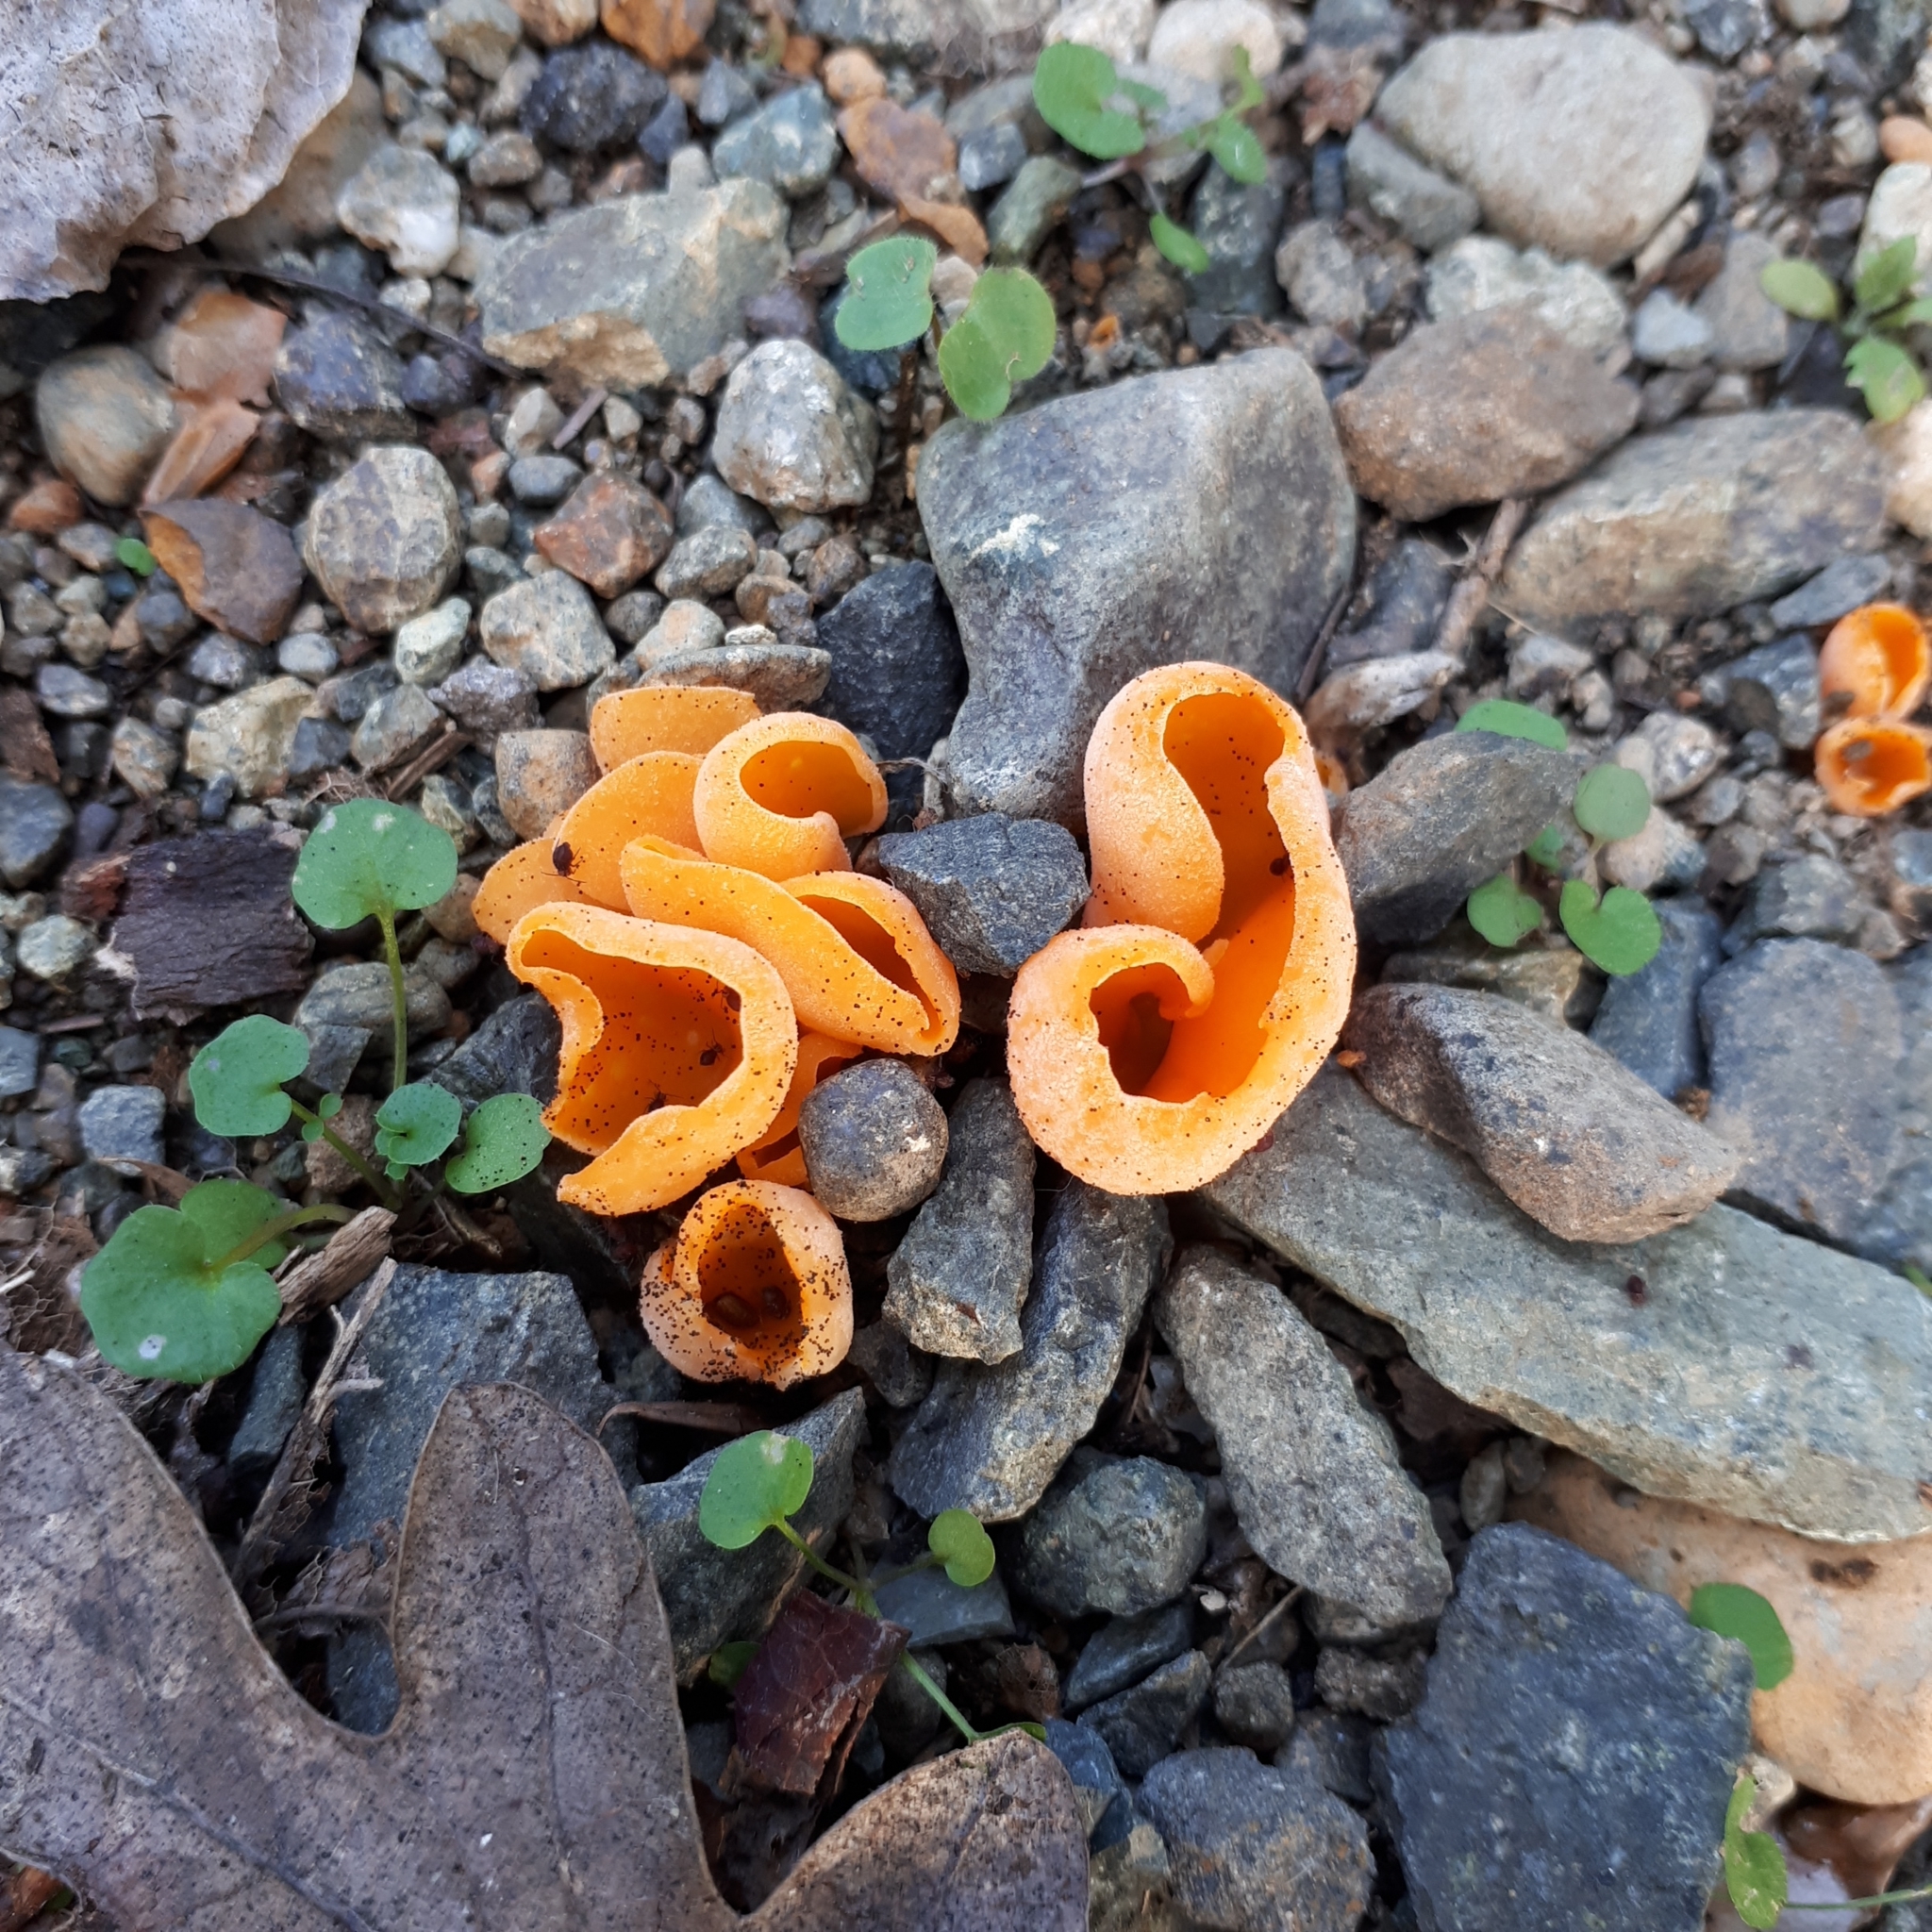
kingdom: Fungi
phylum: Ascomycota
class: Pezizomycetes
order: Pezizales
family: Pyronemataceae
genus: Aleuria
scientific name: Aleuria aurantia
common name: Orange peel fungus
